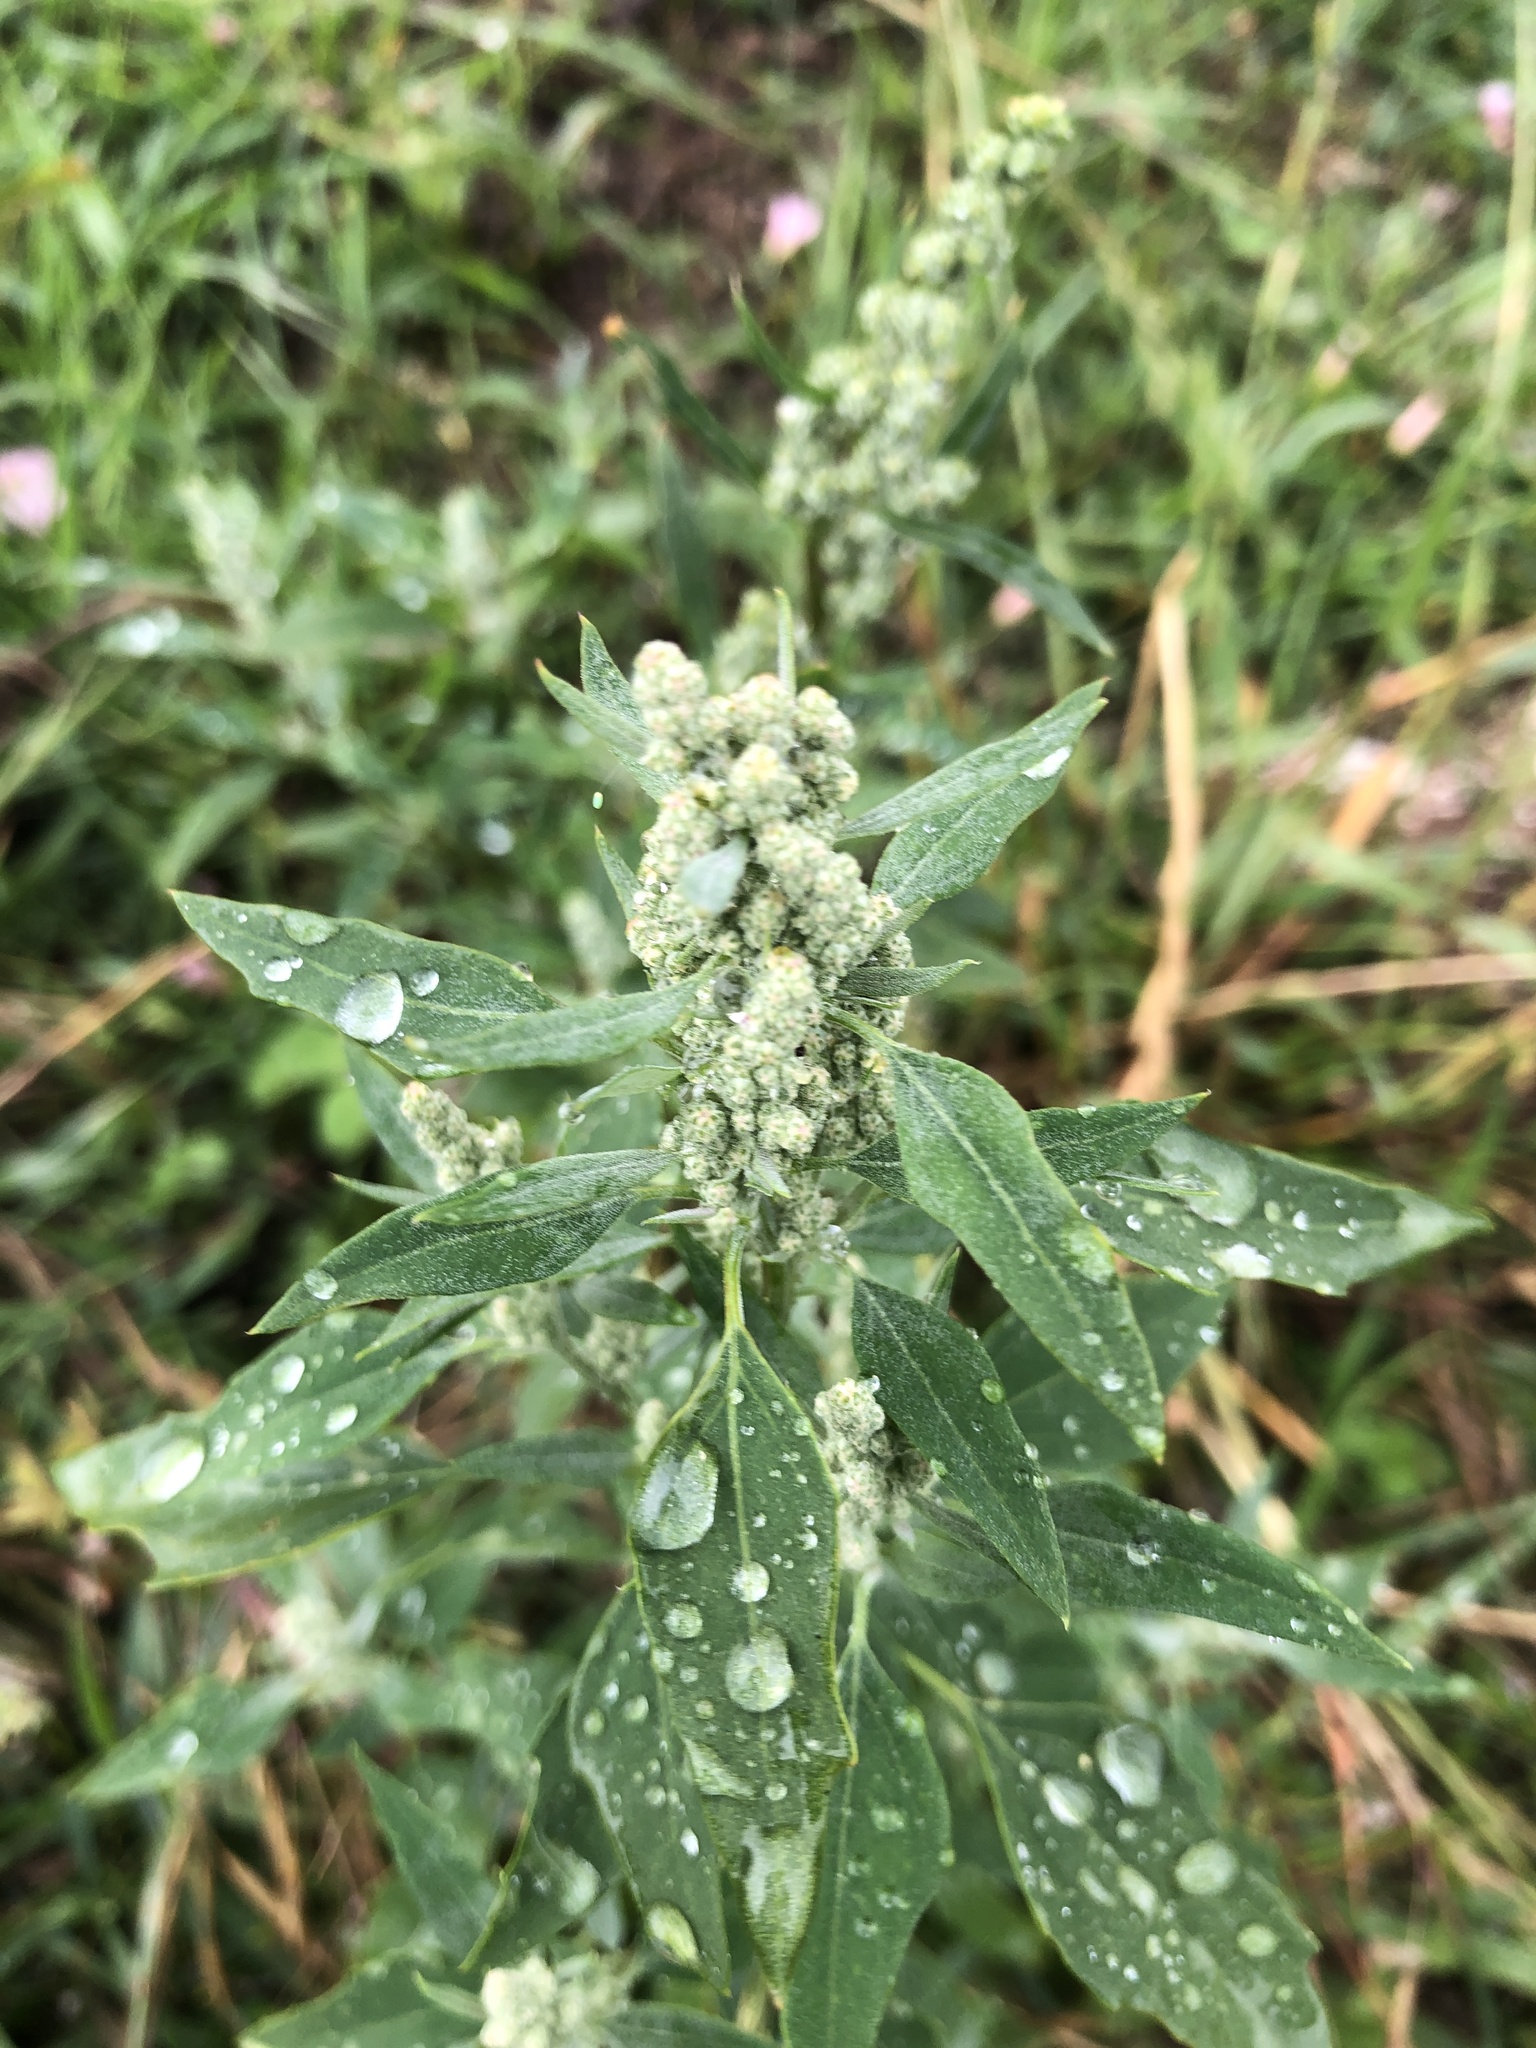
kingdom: Plantae
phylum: Tracheophyta
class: Magnoliopsida
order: Caryophyllales
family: Amaranthaceae
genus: Chenopodium
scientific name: Chenopodium album
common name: Fat-hen
